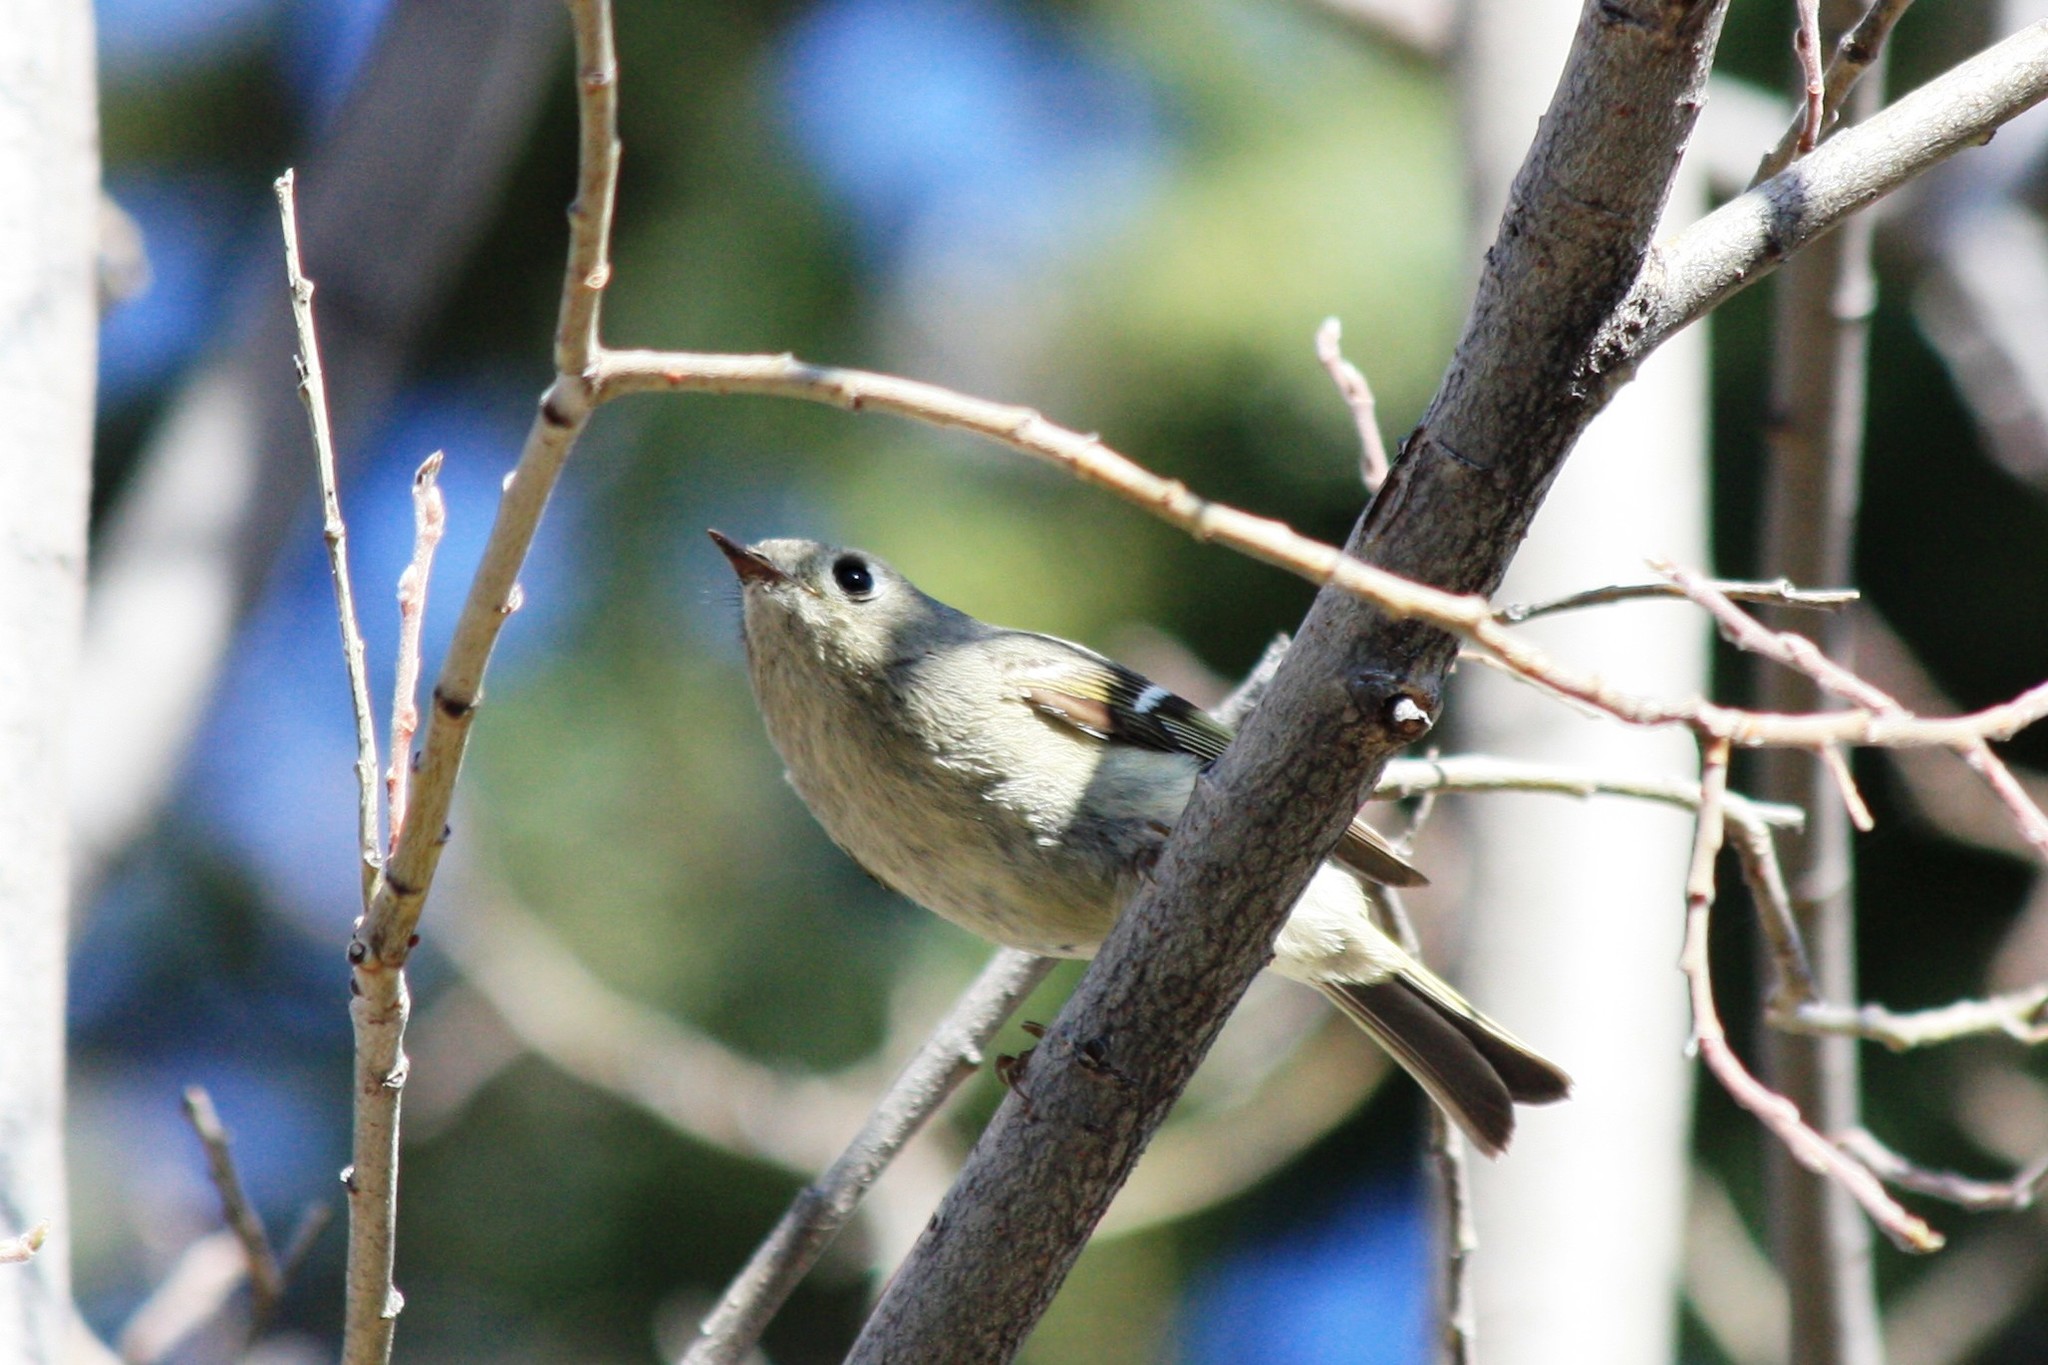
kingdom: Animalia
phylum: Chordata
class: Aves
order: Passeriformes
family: Regulidae
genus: Regulus
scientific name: Regulus calendula
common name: Ruby-crowned kinglet
